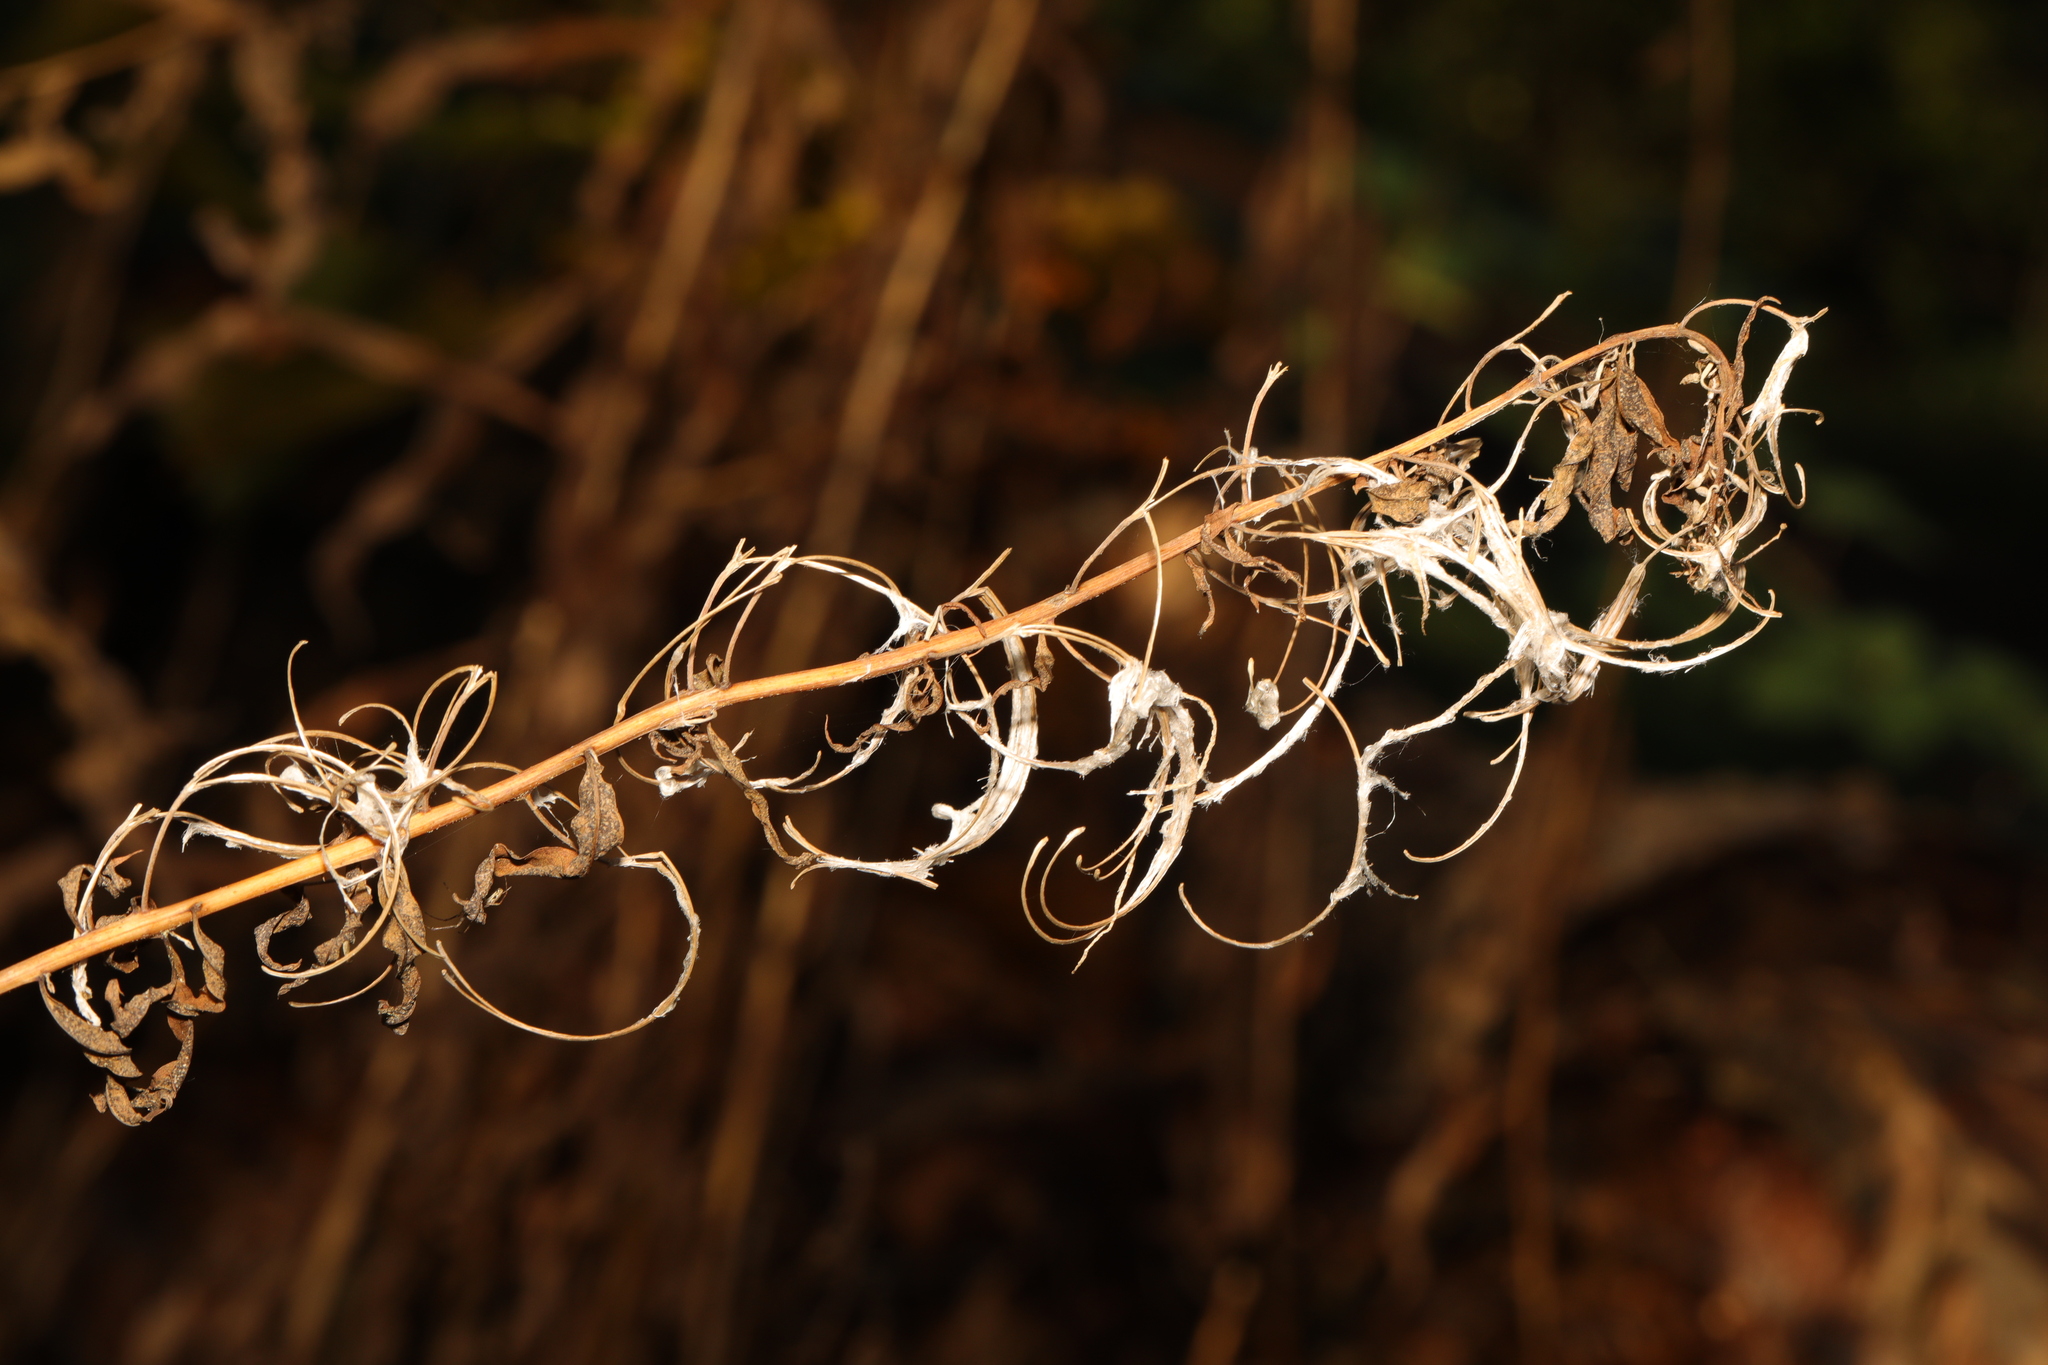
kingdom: Plantae
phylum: Tracheophyta
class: Magnoliopsida
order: Myrtales
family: Onagraceae
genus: Chamaenerion
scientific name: Chamaenerion angustifolium
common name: Fireweed
